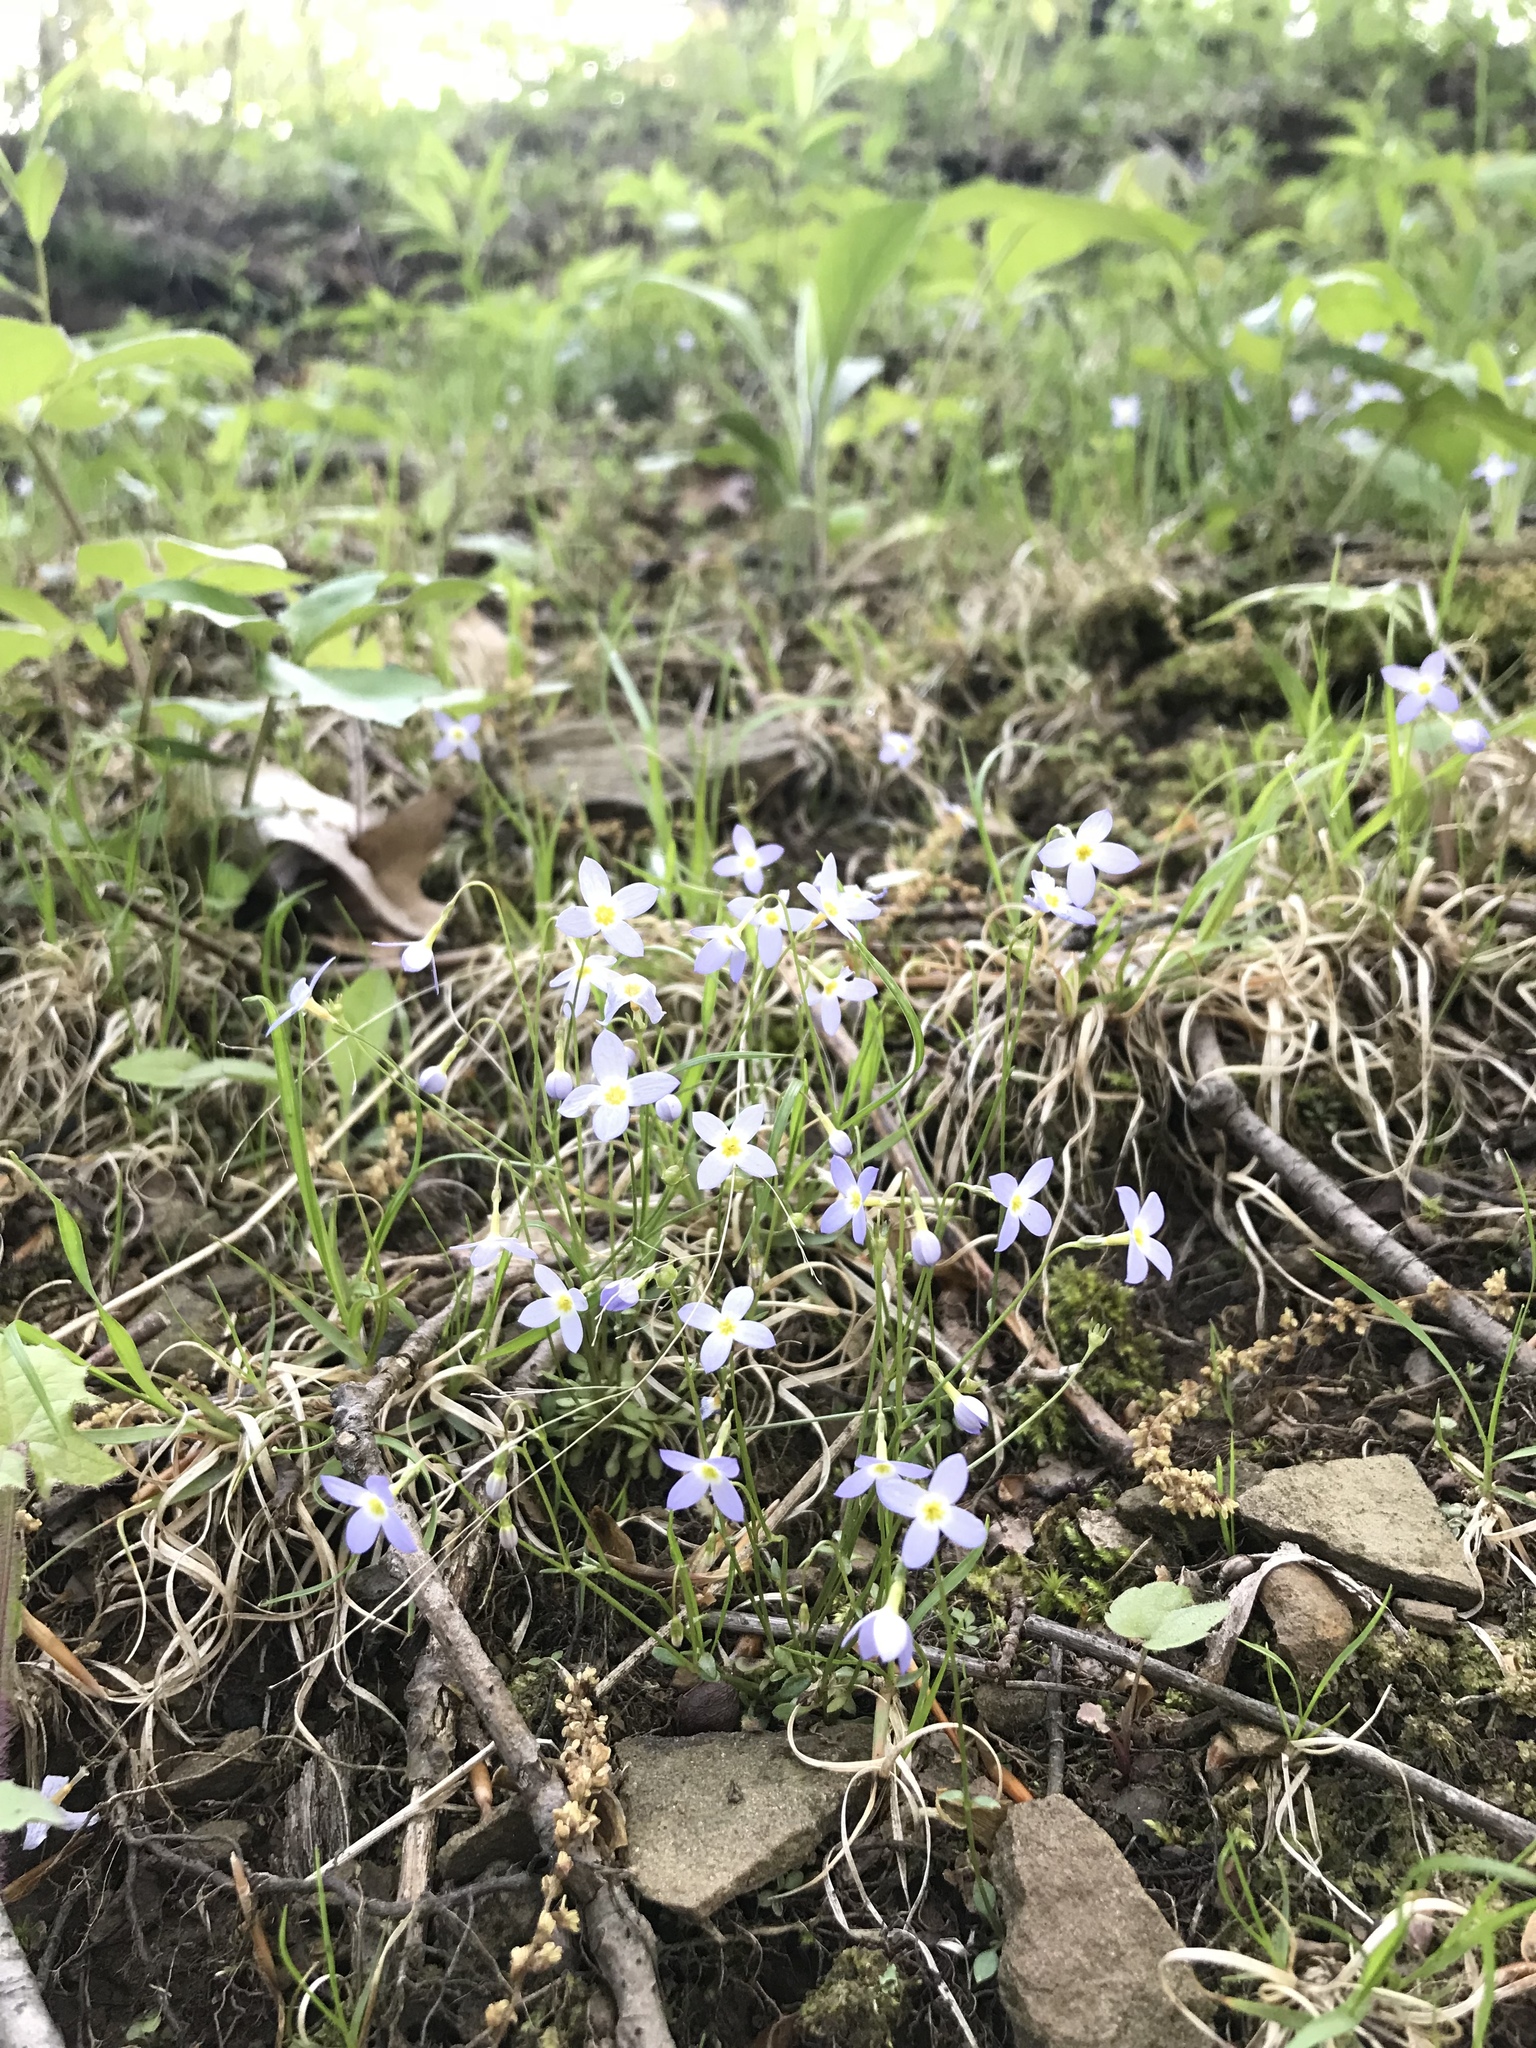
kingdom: Plantae
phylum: Tracheophyta
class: Magnoliopsida
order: Gentianales
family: Rubiaceae
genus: Houstonia
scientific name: Houstonia caerulea
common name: Bluets
